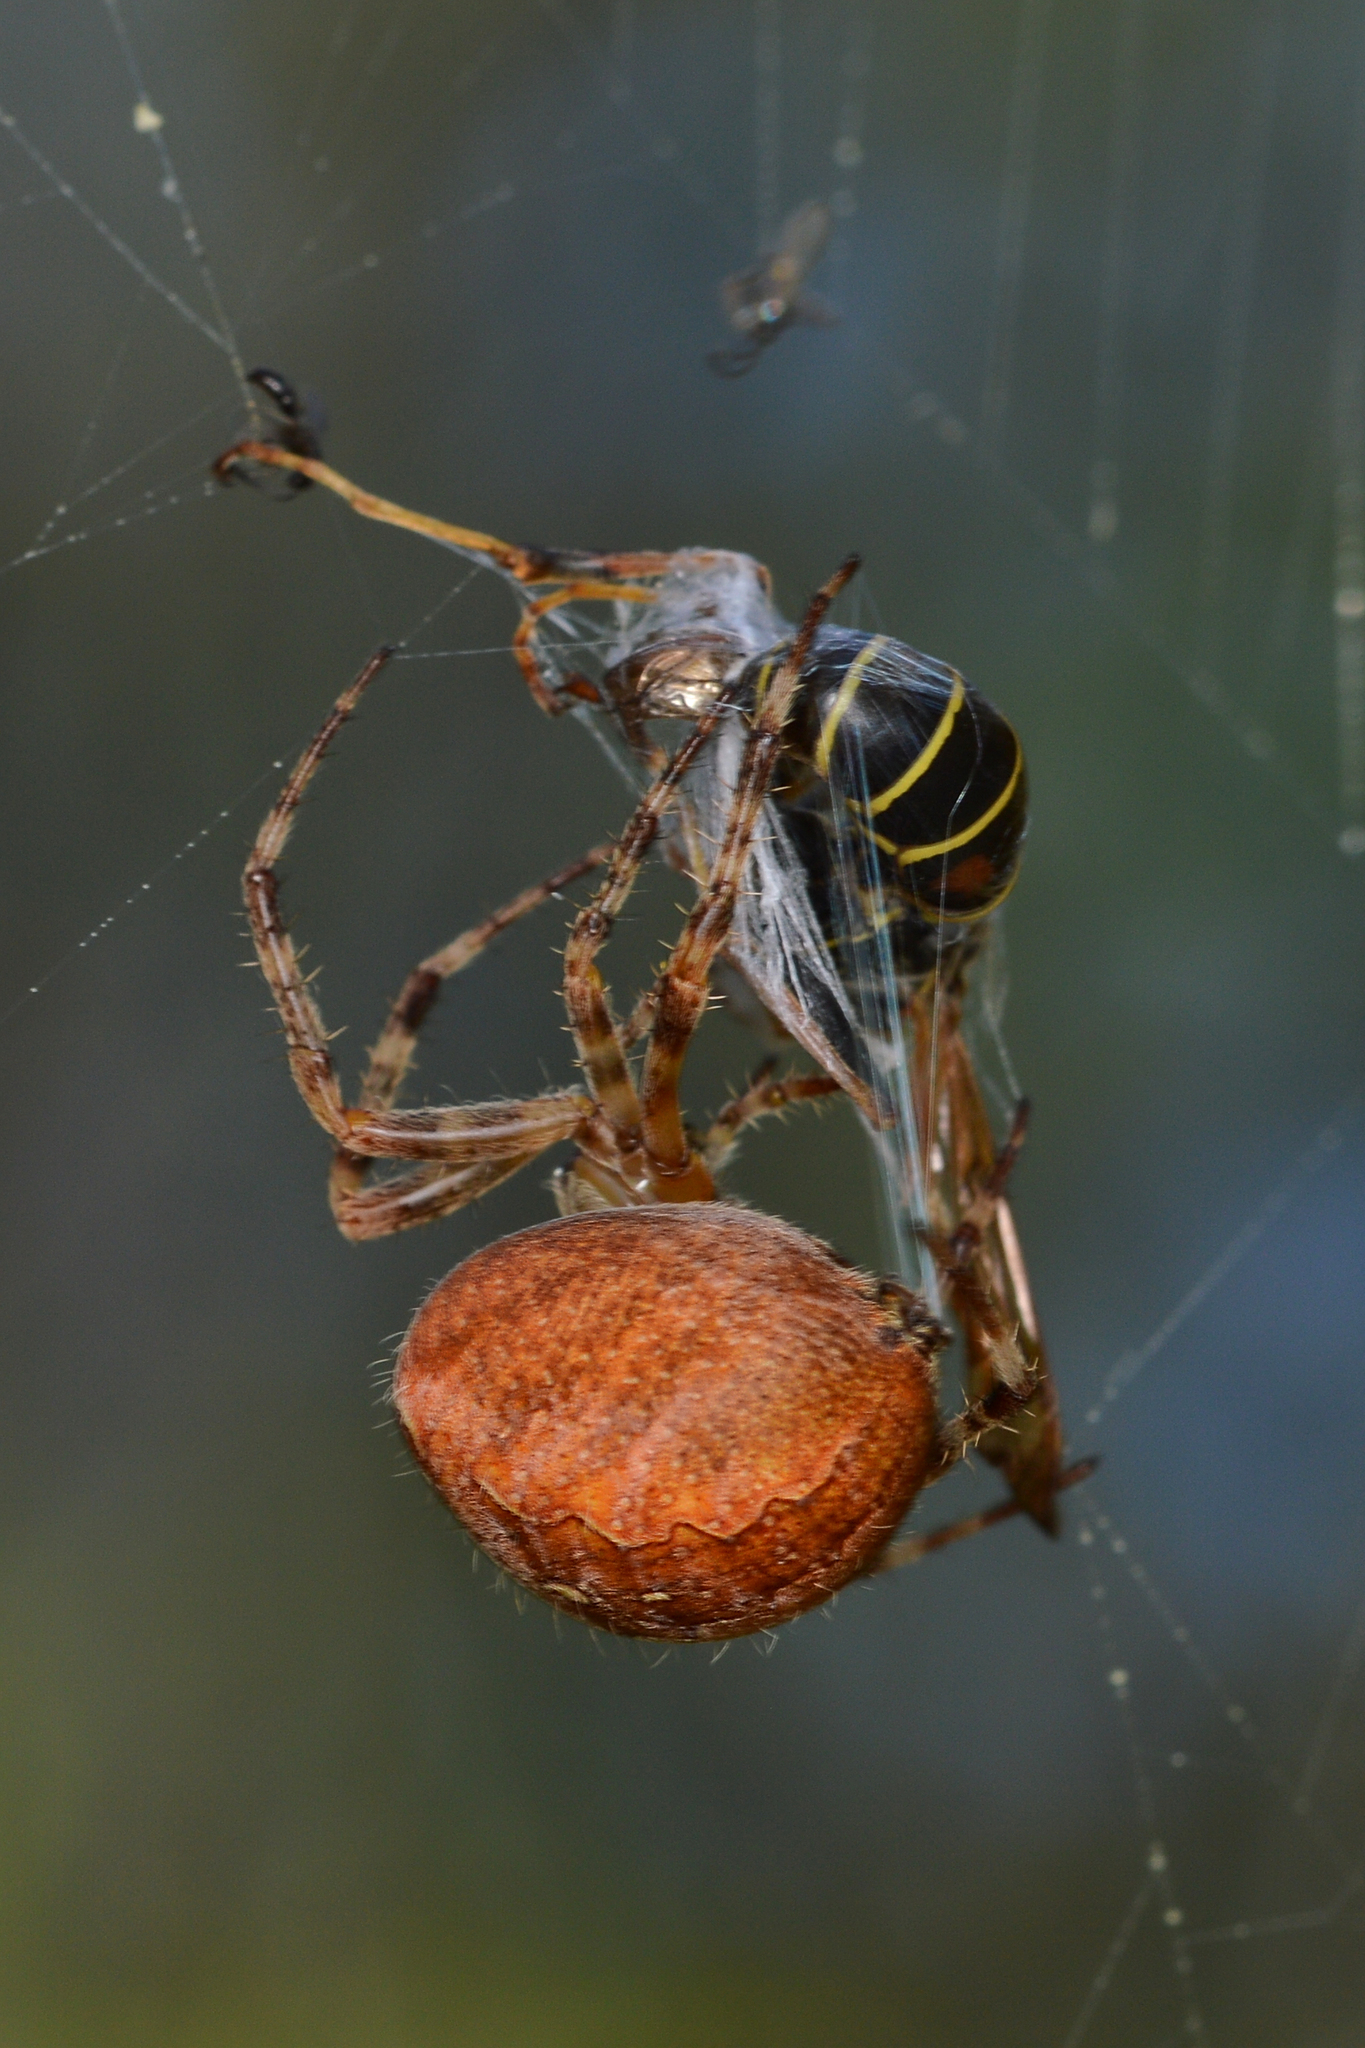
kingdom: Animalia
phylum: Arthropoda
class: Arachnida
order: Araneae
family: Araneidae
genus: Araneus
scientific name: Araneus diadematus
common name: Cross orbweaver
